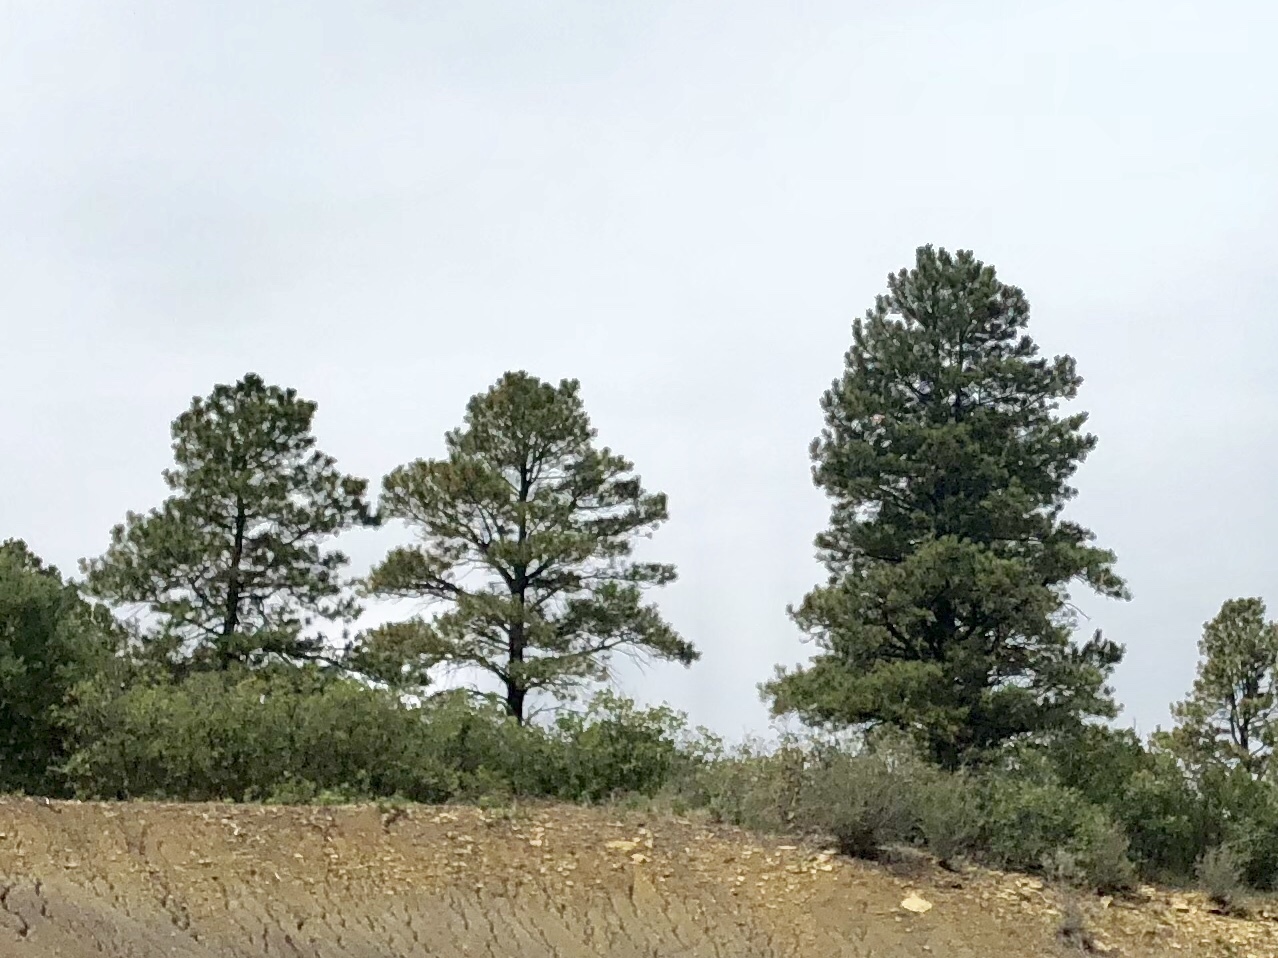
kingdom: Plantae
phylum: Tracheophyta
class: Pinopsida
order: Pinales
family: Pinaceae
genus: Pinus
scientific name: Pinus ponderosa
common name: Western yellow-pine
